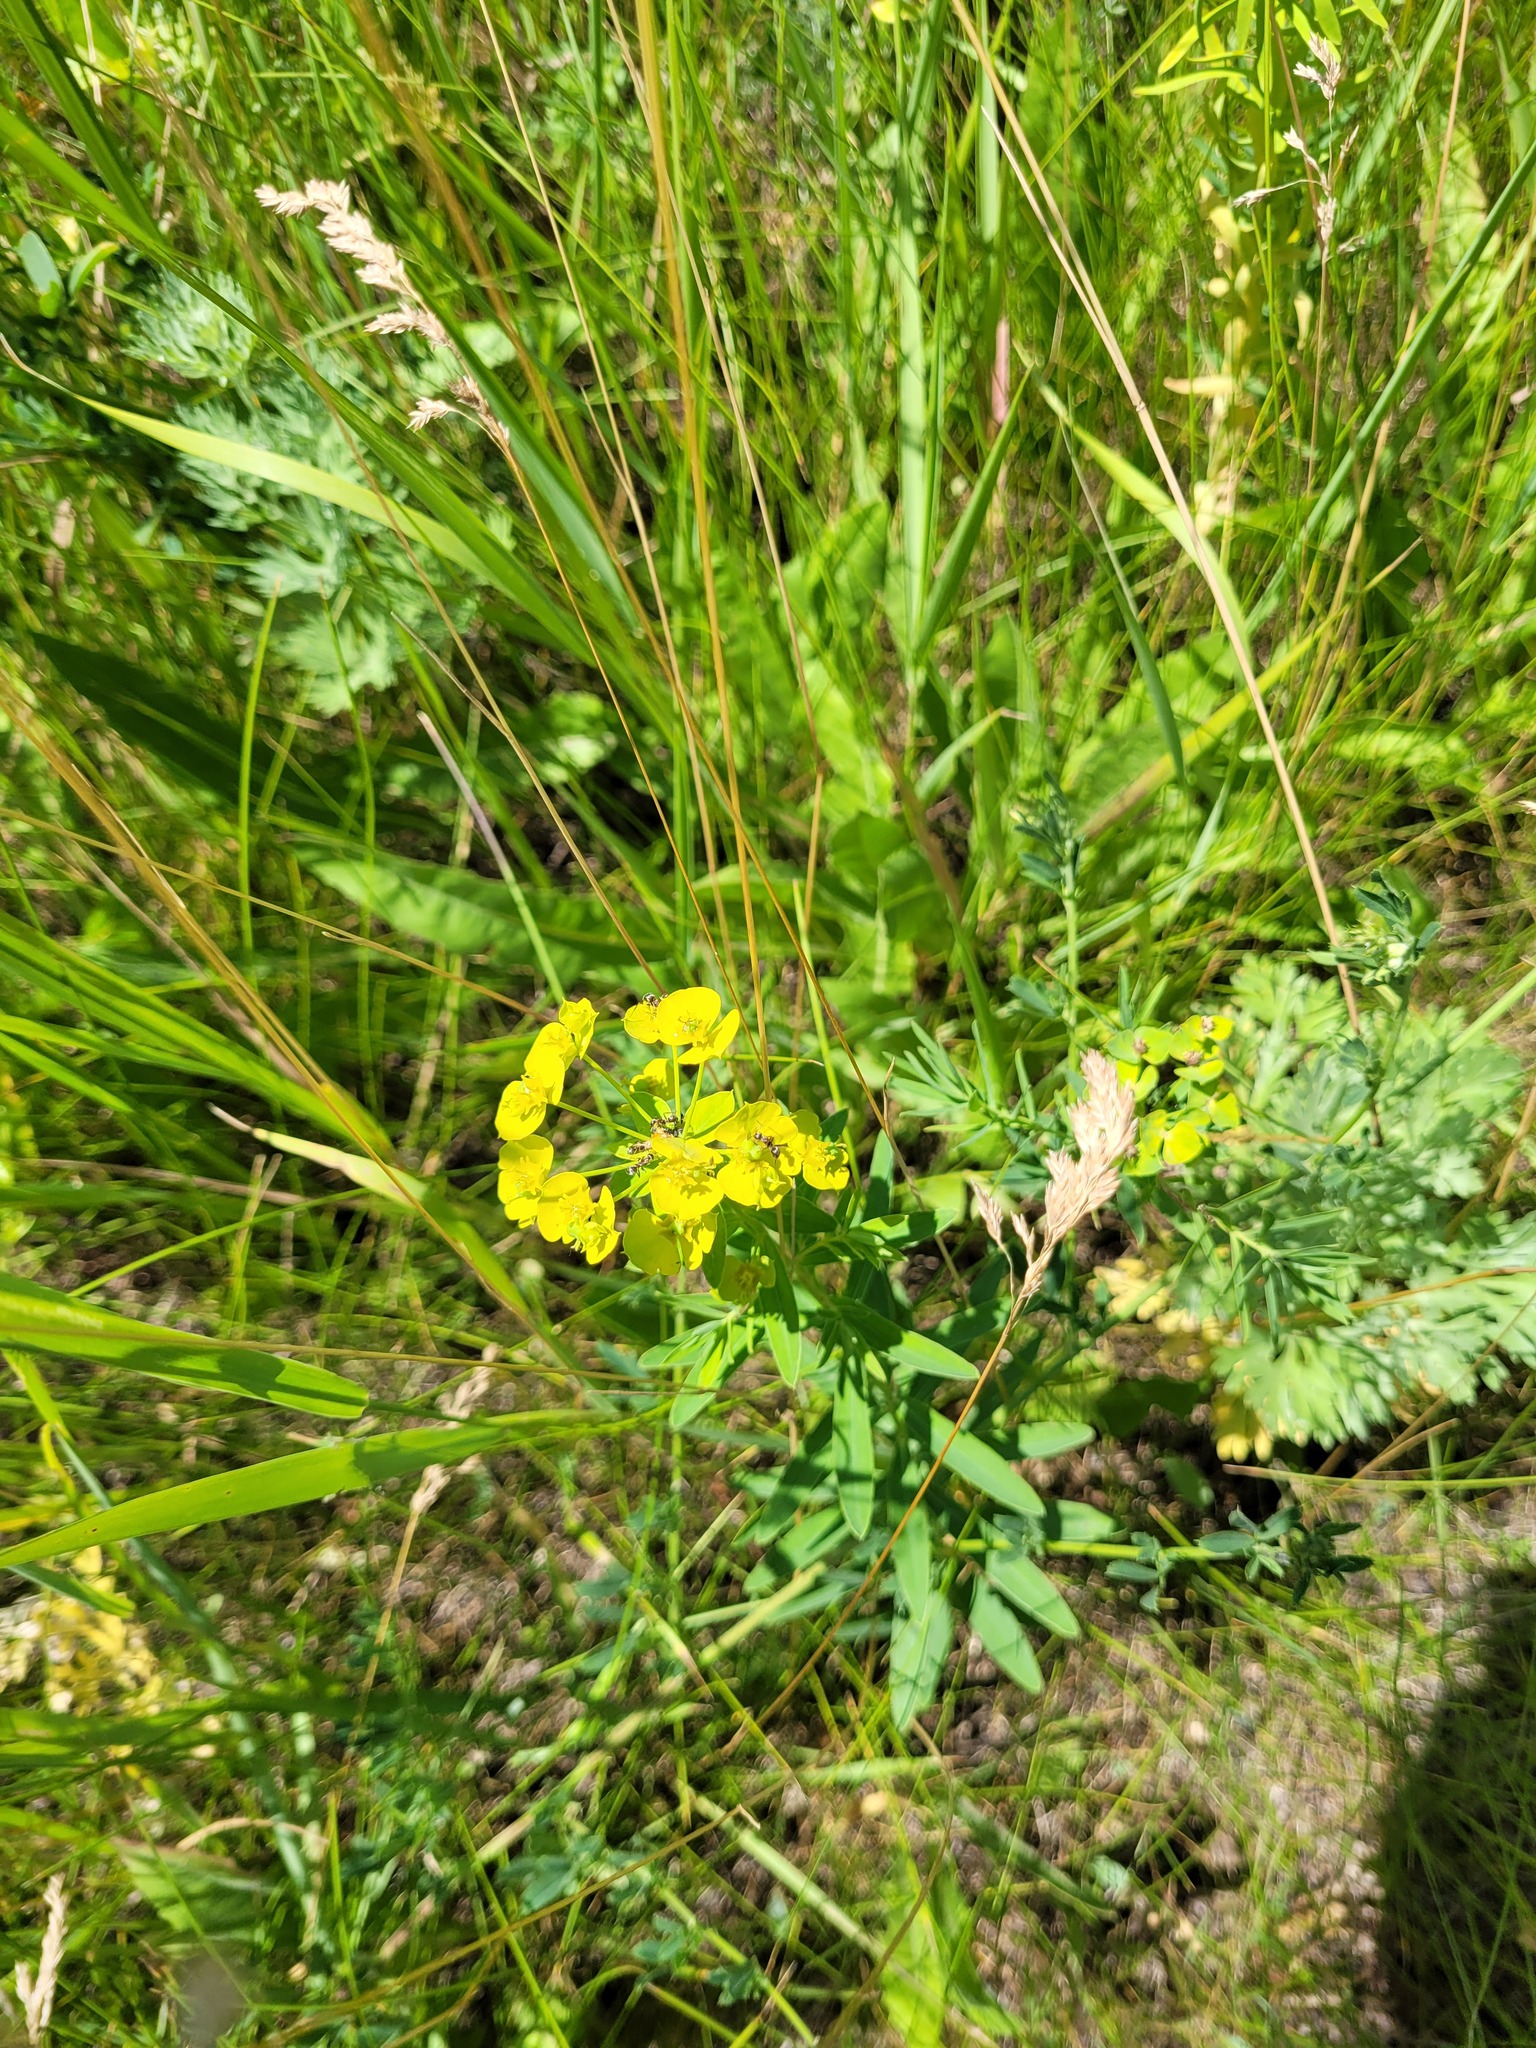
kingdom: Plantae
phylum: Tracheophyta
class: Magnoliopsida
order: Malpighiales
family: Euphorbiaceae
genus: Euphorbia
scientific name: Euphorbia virgata
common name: Leafy spurge
